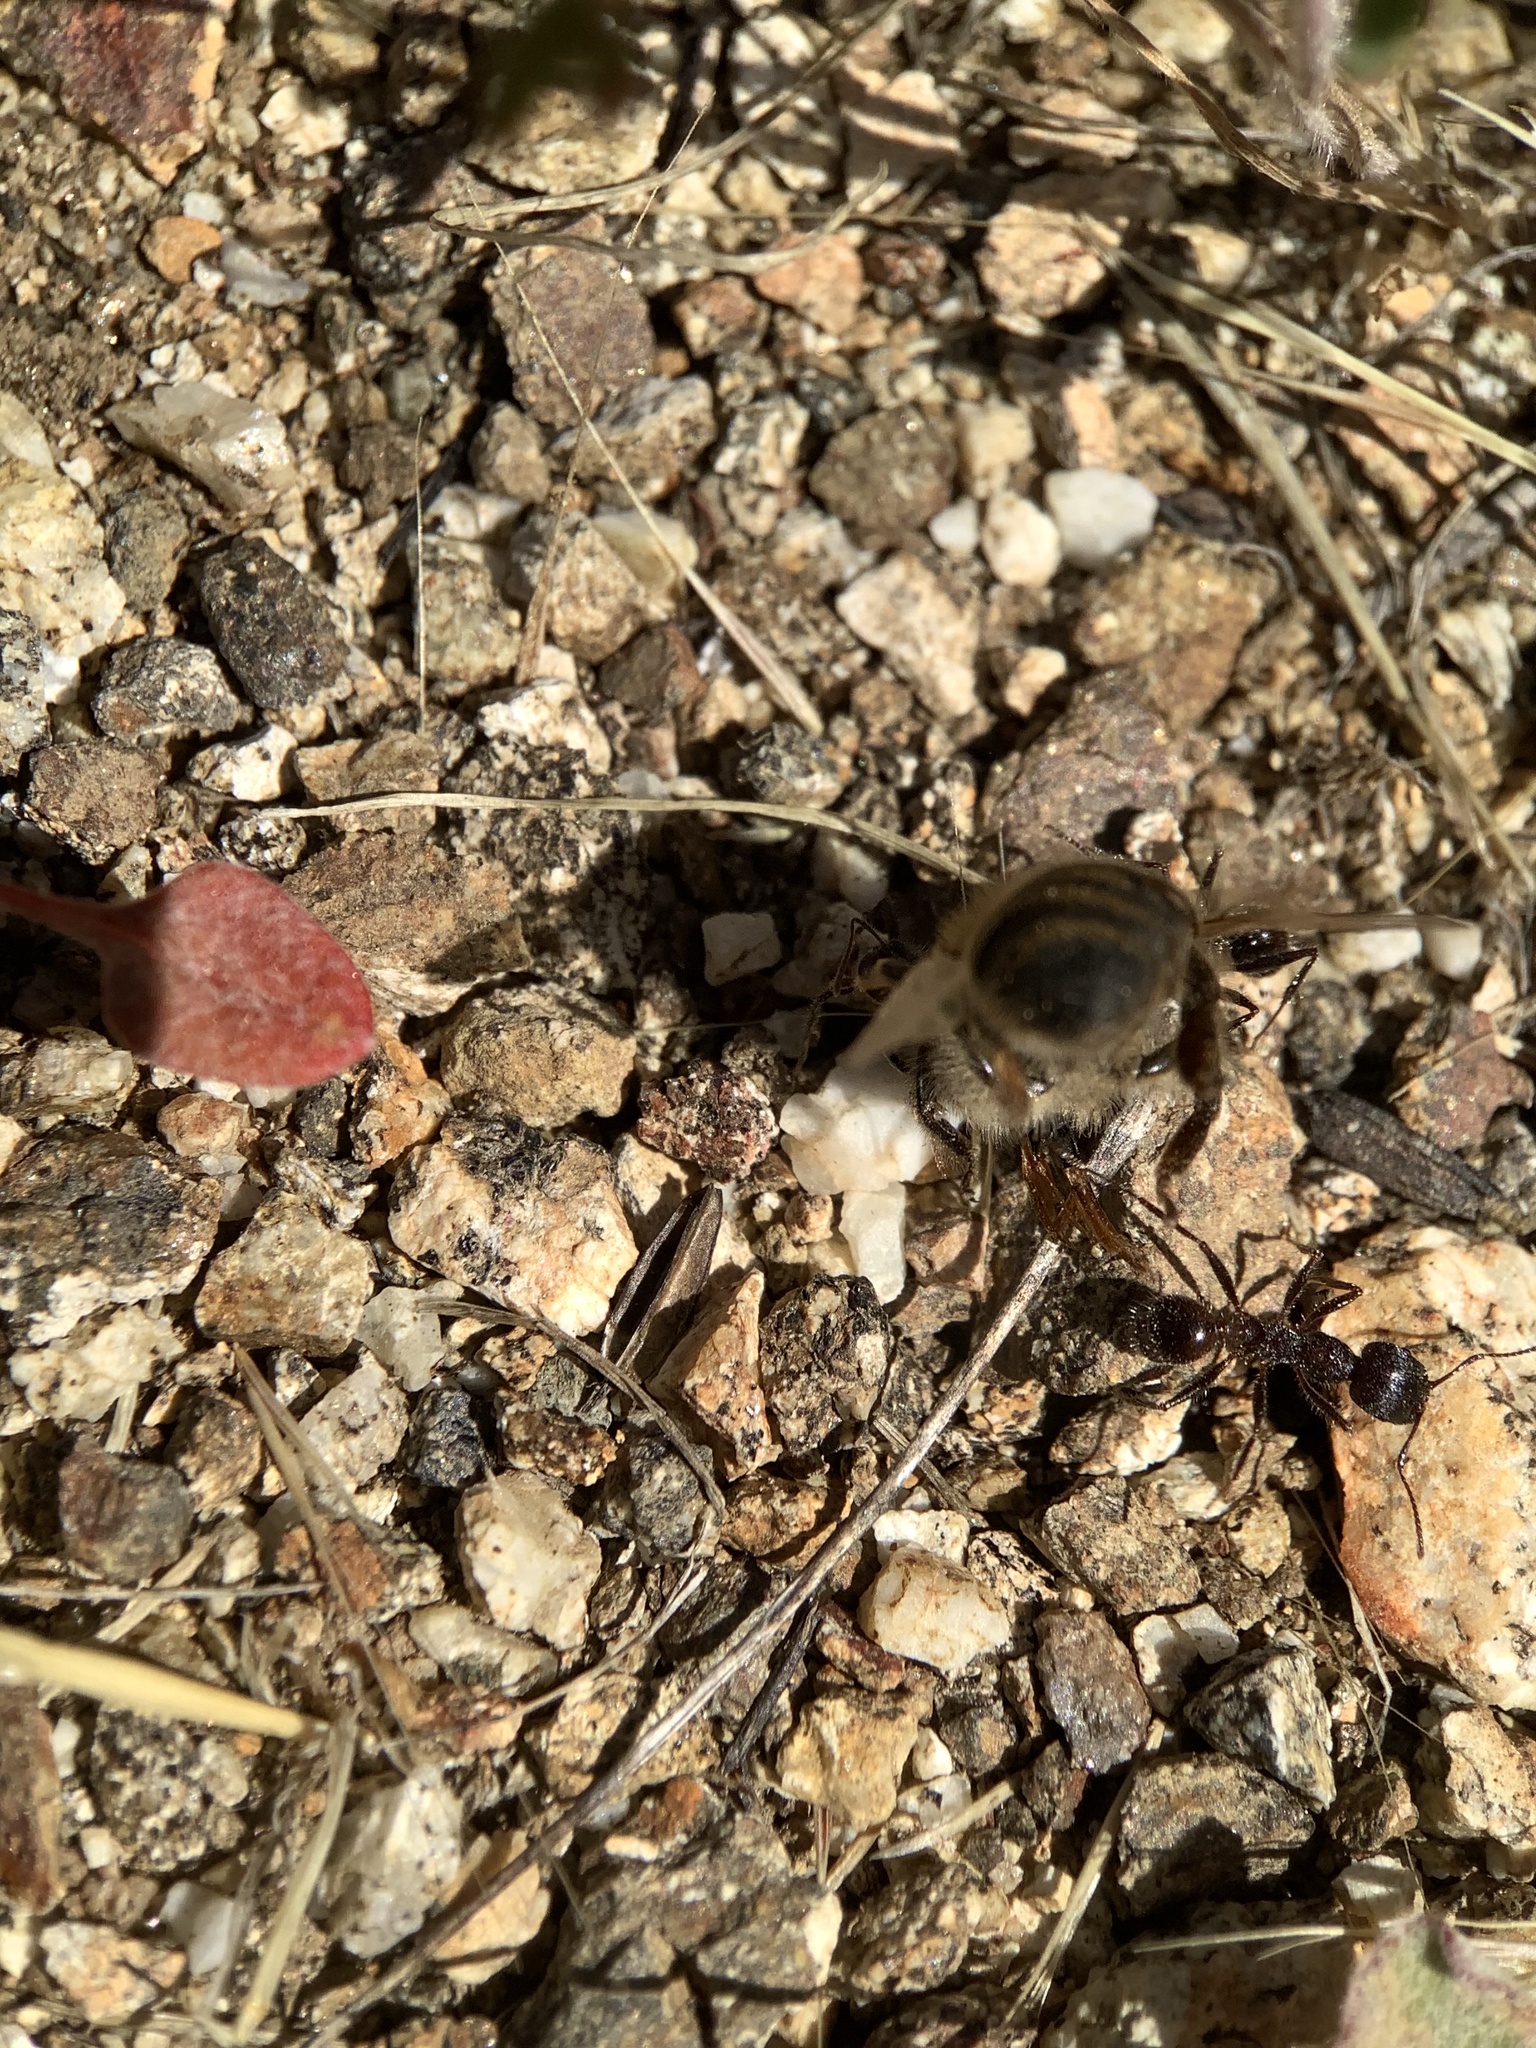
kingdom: Animalia
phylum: Arthropoda
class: Insecta
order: Hymenoptera
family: Formicidae
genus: Veromessor
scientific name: Veromessor andrei
